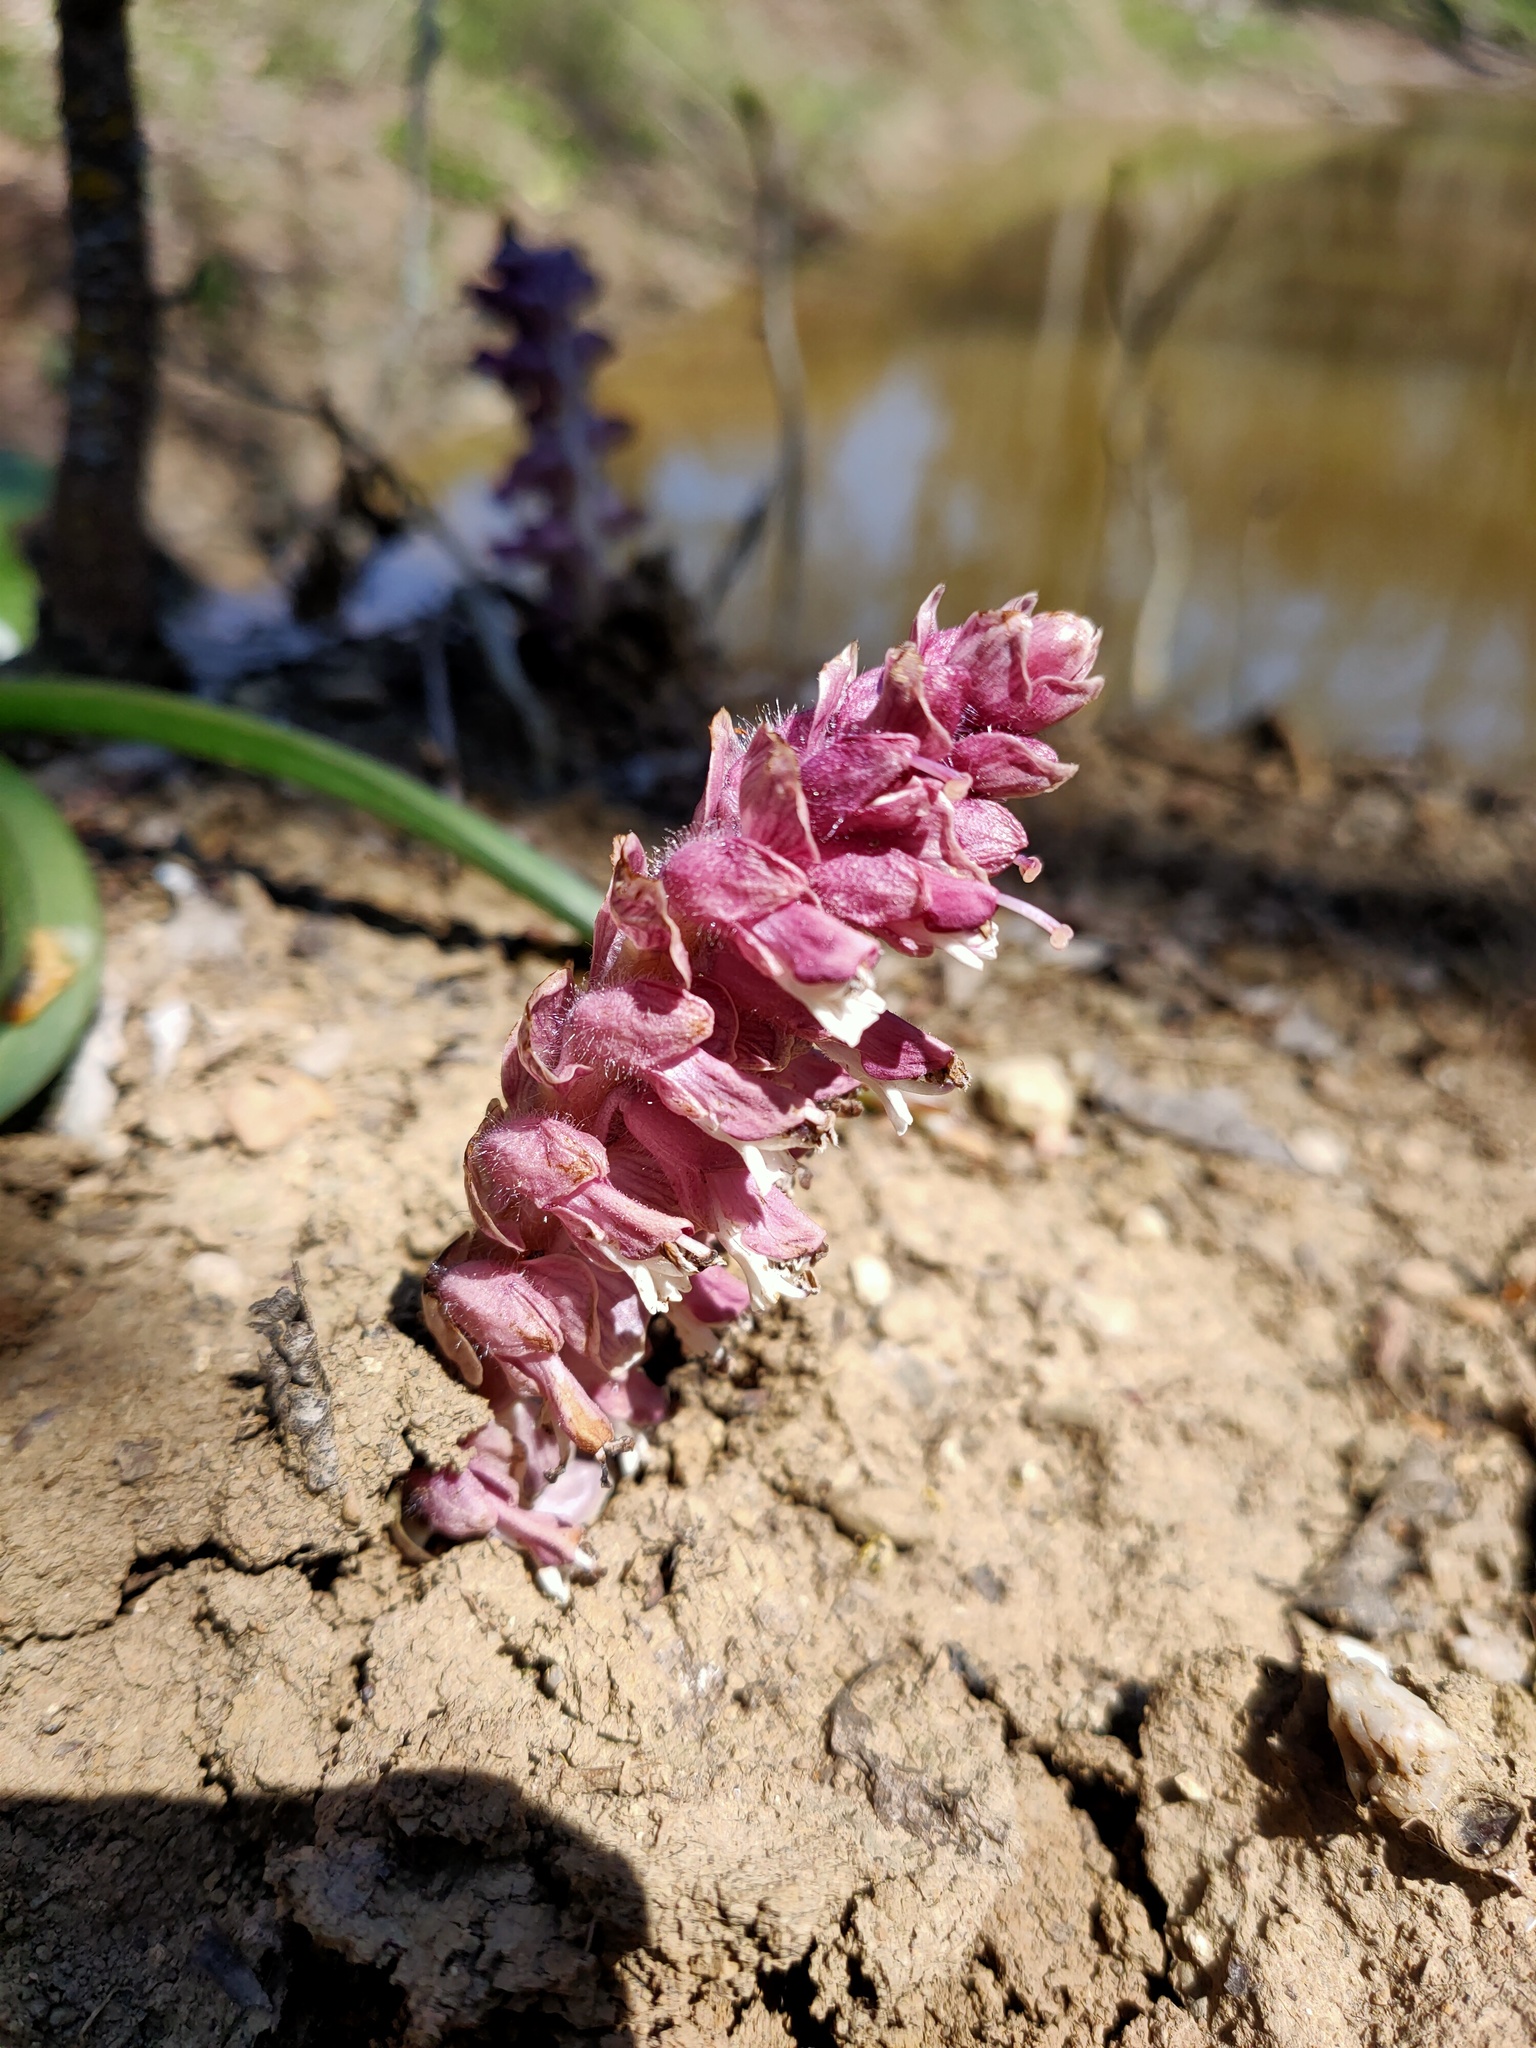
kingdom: Plantae
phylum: Tracheophyta
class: Magnoliopsida
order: Lamiales
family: Orobanchaceae
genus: Lathraea
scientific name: Lathraea squamaria
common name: Toothwort
